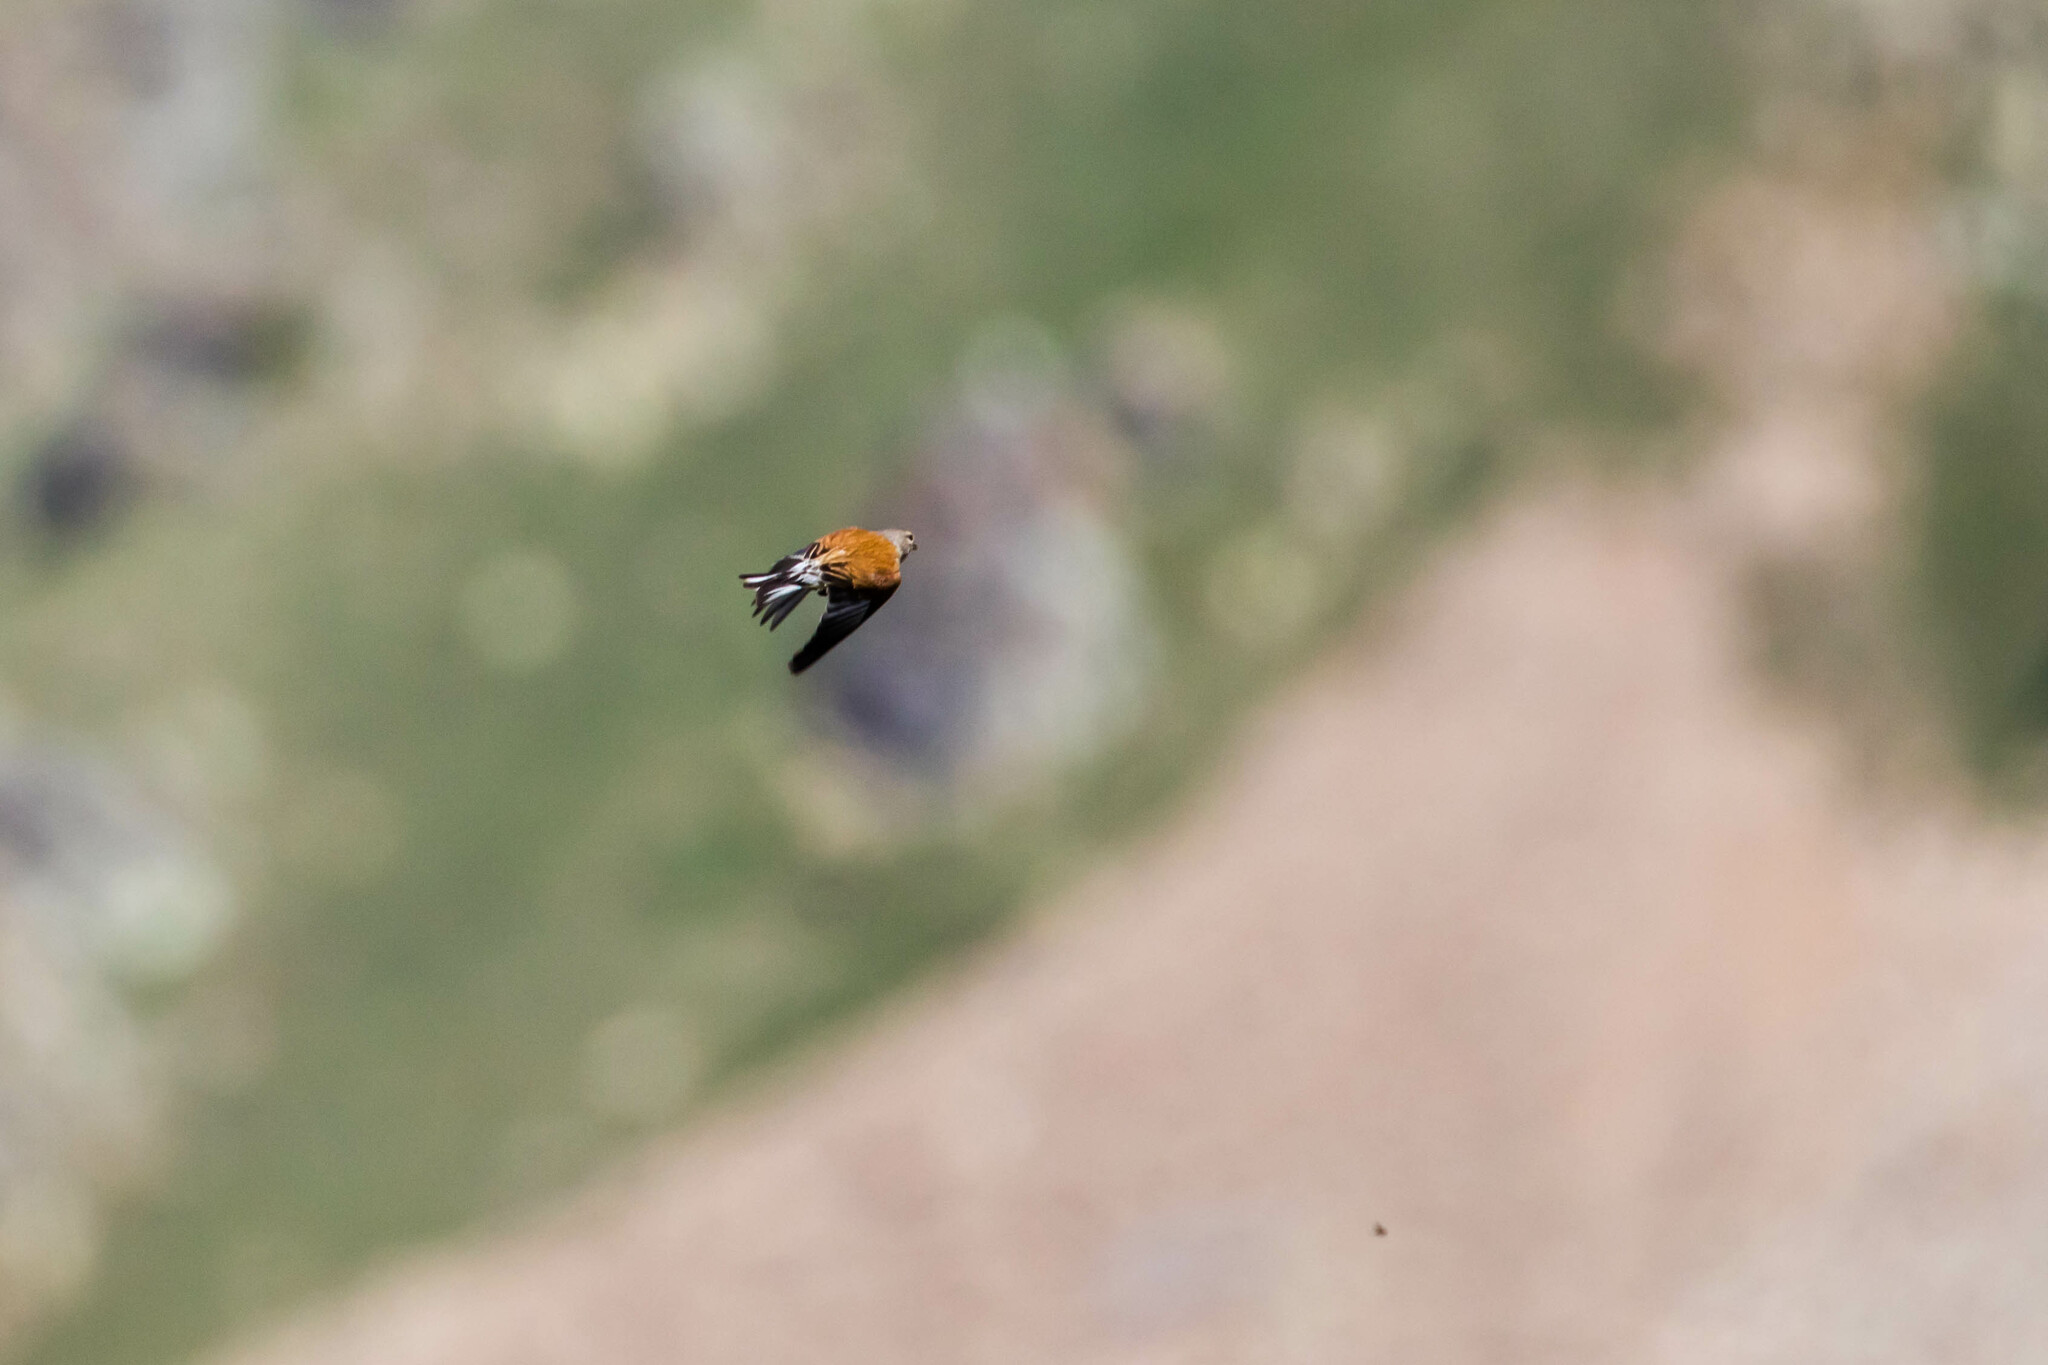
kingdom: Animalia
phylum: Chordata
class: Aves
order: Passeriformes
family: Fringillidae
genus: Linaria
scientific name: Linaria cannabina
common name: Common linnet
